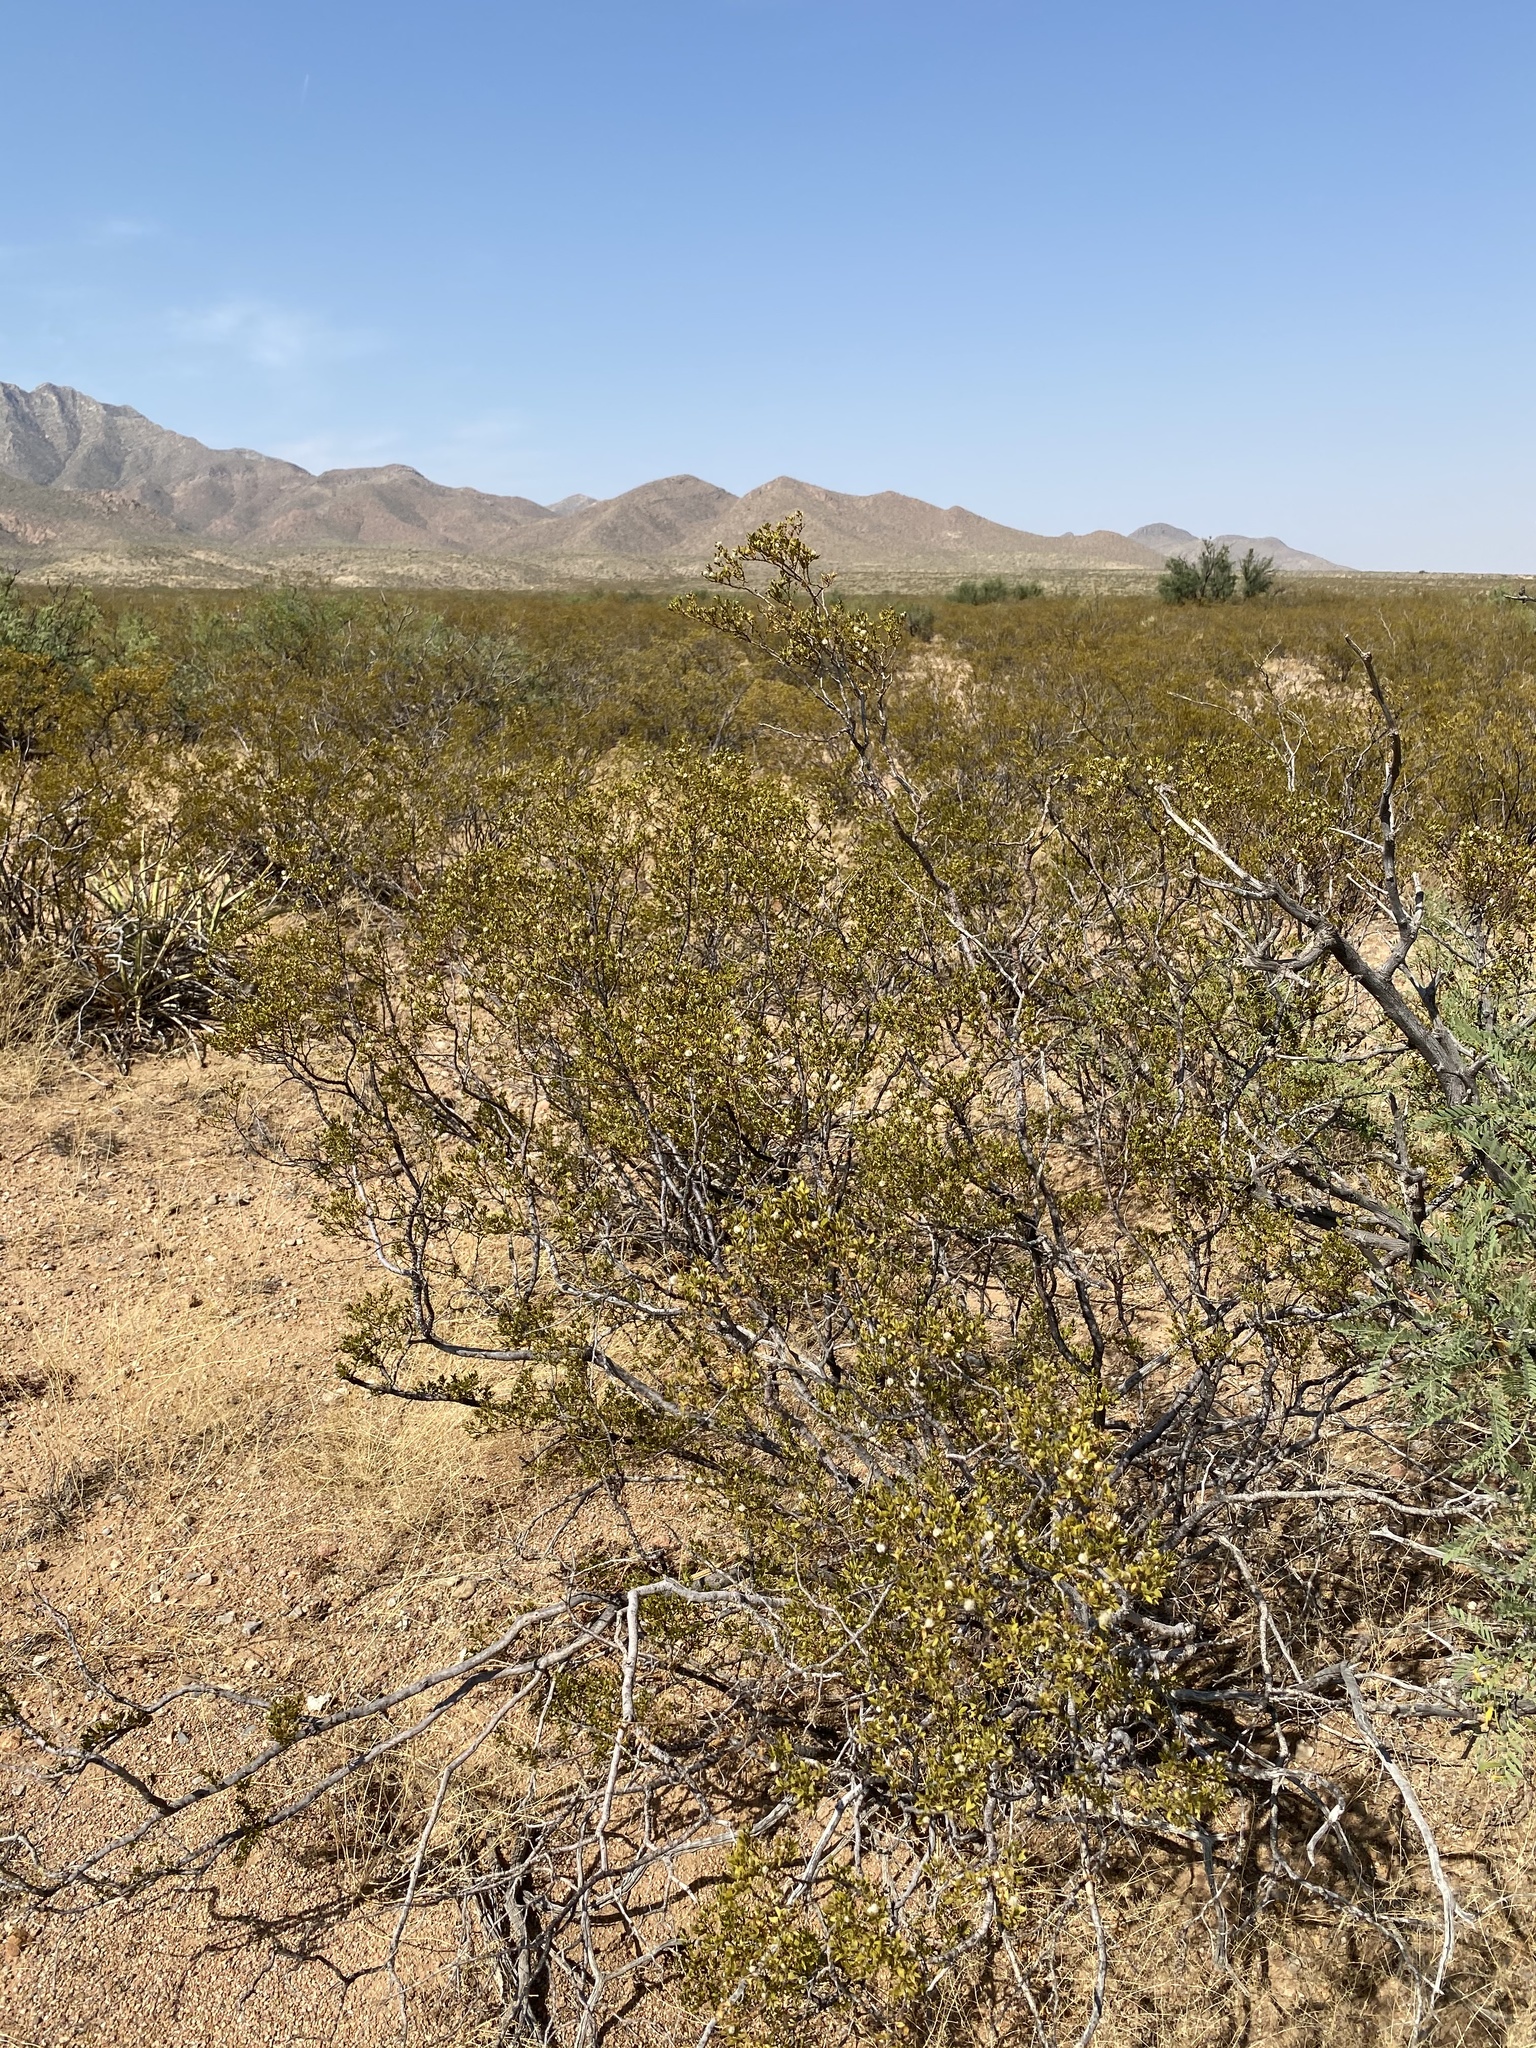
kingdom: Plantae
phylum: Tracheophyta
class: Magnoliopsida
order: Zygophyllales
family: Zygophyllaceae
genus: Larrea
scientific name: Larrea tridentata
